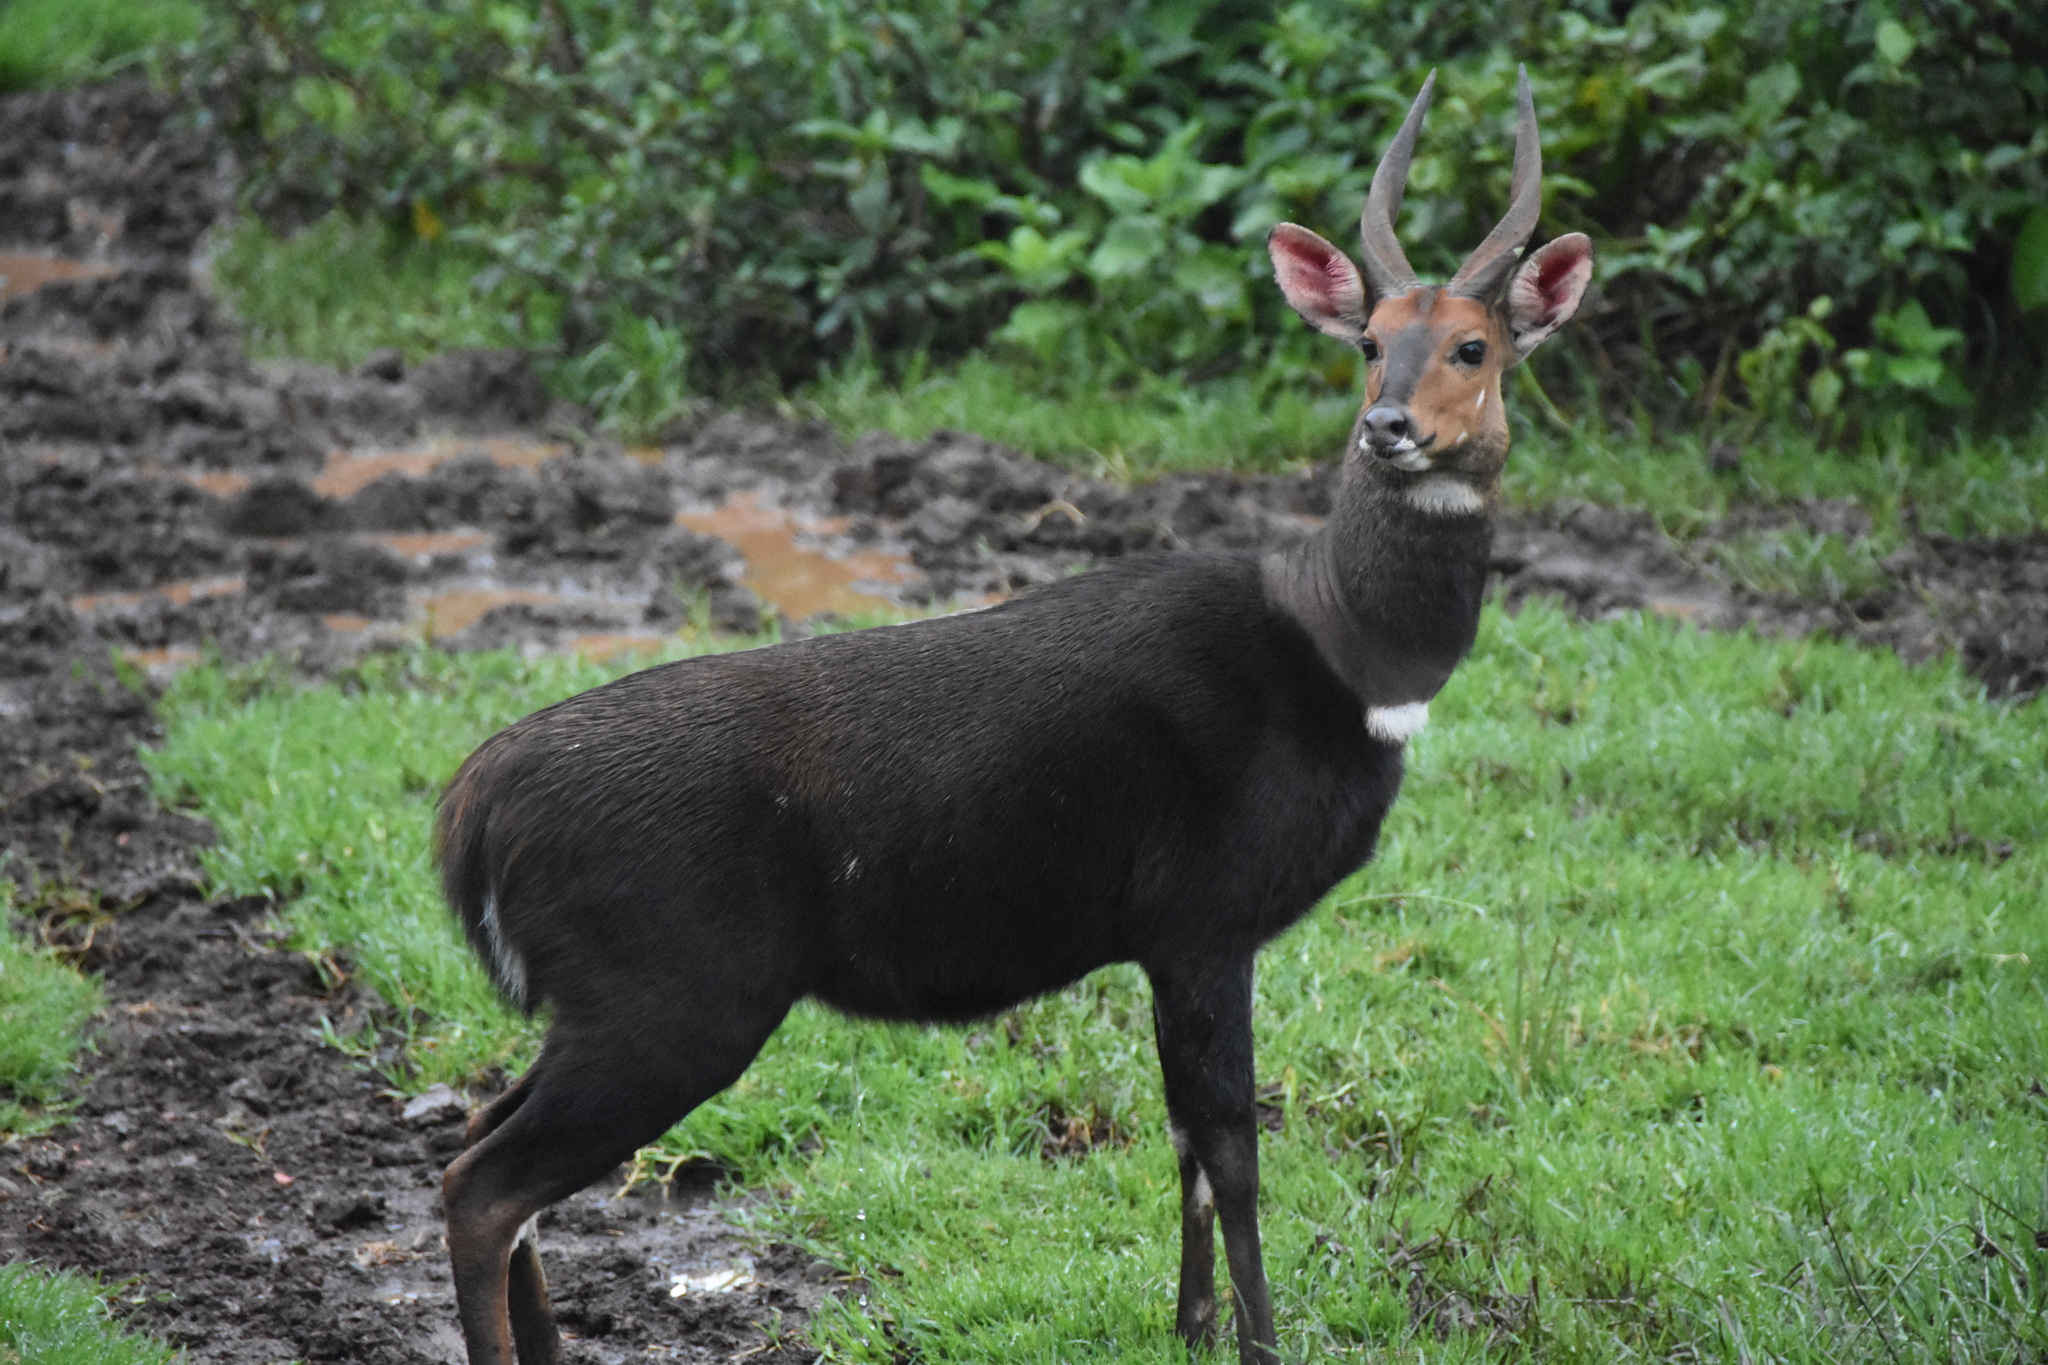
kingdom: Animalia
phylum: Chordata
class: Mammalia
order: Artiodactyla
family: Bovidae
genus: Tragelaphus
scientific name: Tragelaphus scriptus
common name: Bushbuck
